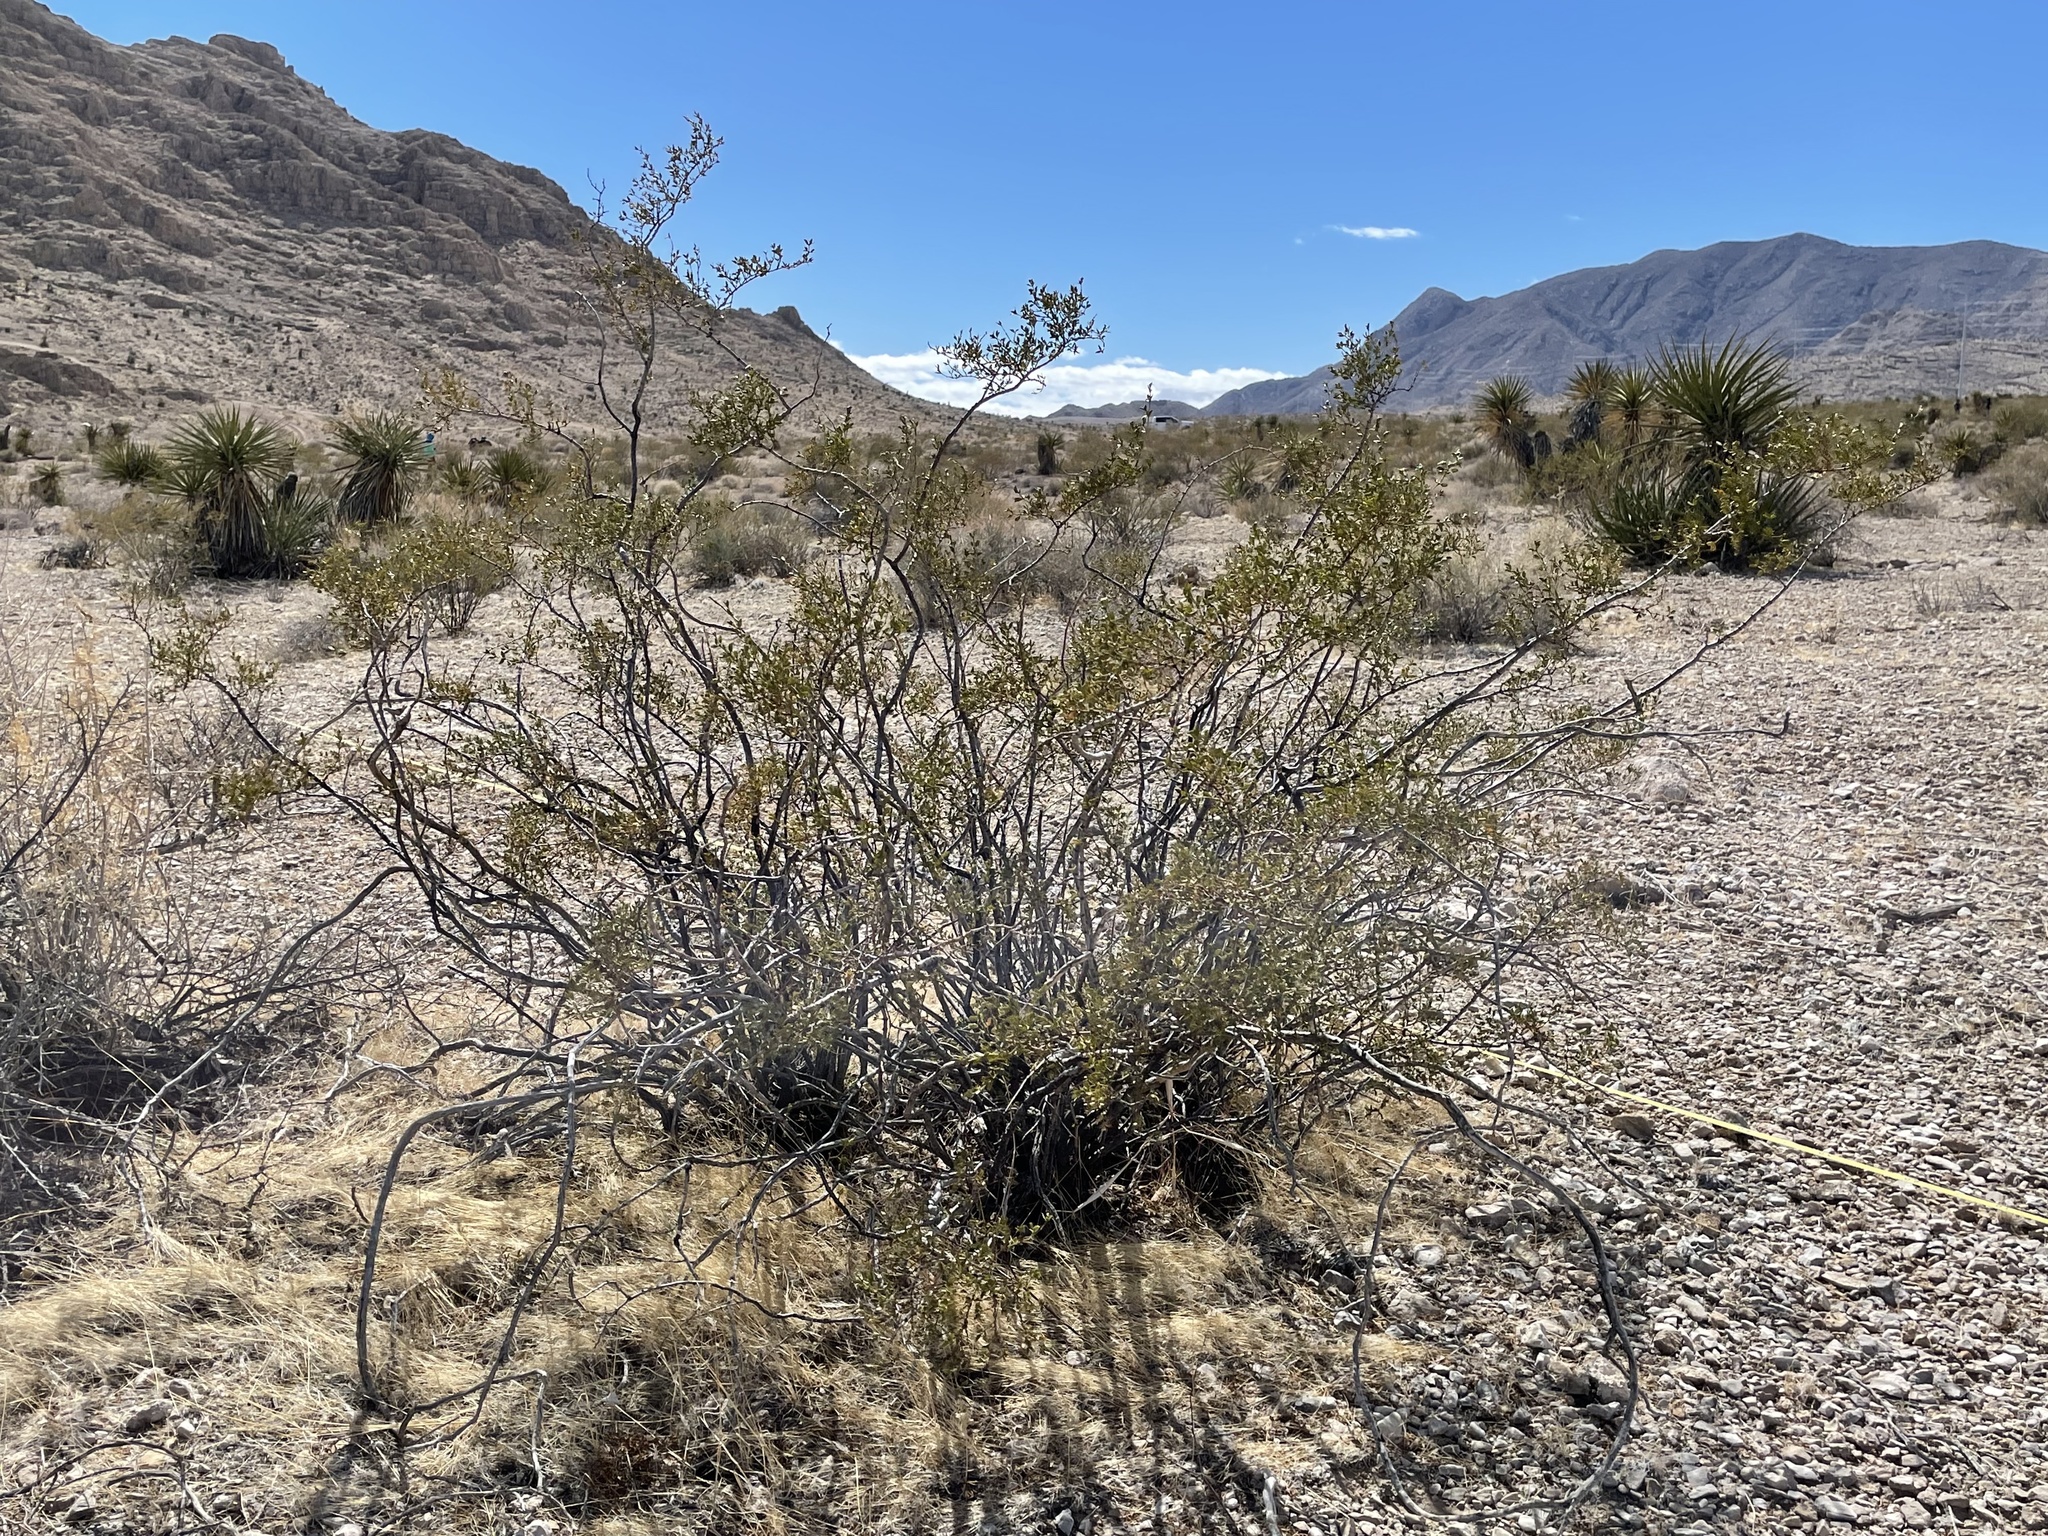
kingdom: Plantae
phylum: Tracheophyta
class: Magnoliopsida
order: Zygophyllales
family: Zygophyllaceae
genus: Larrea
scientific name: Larrea tridentata
